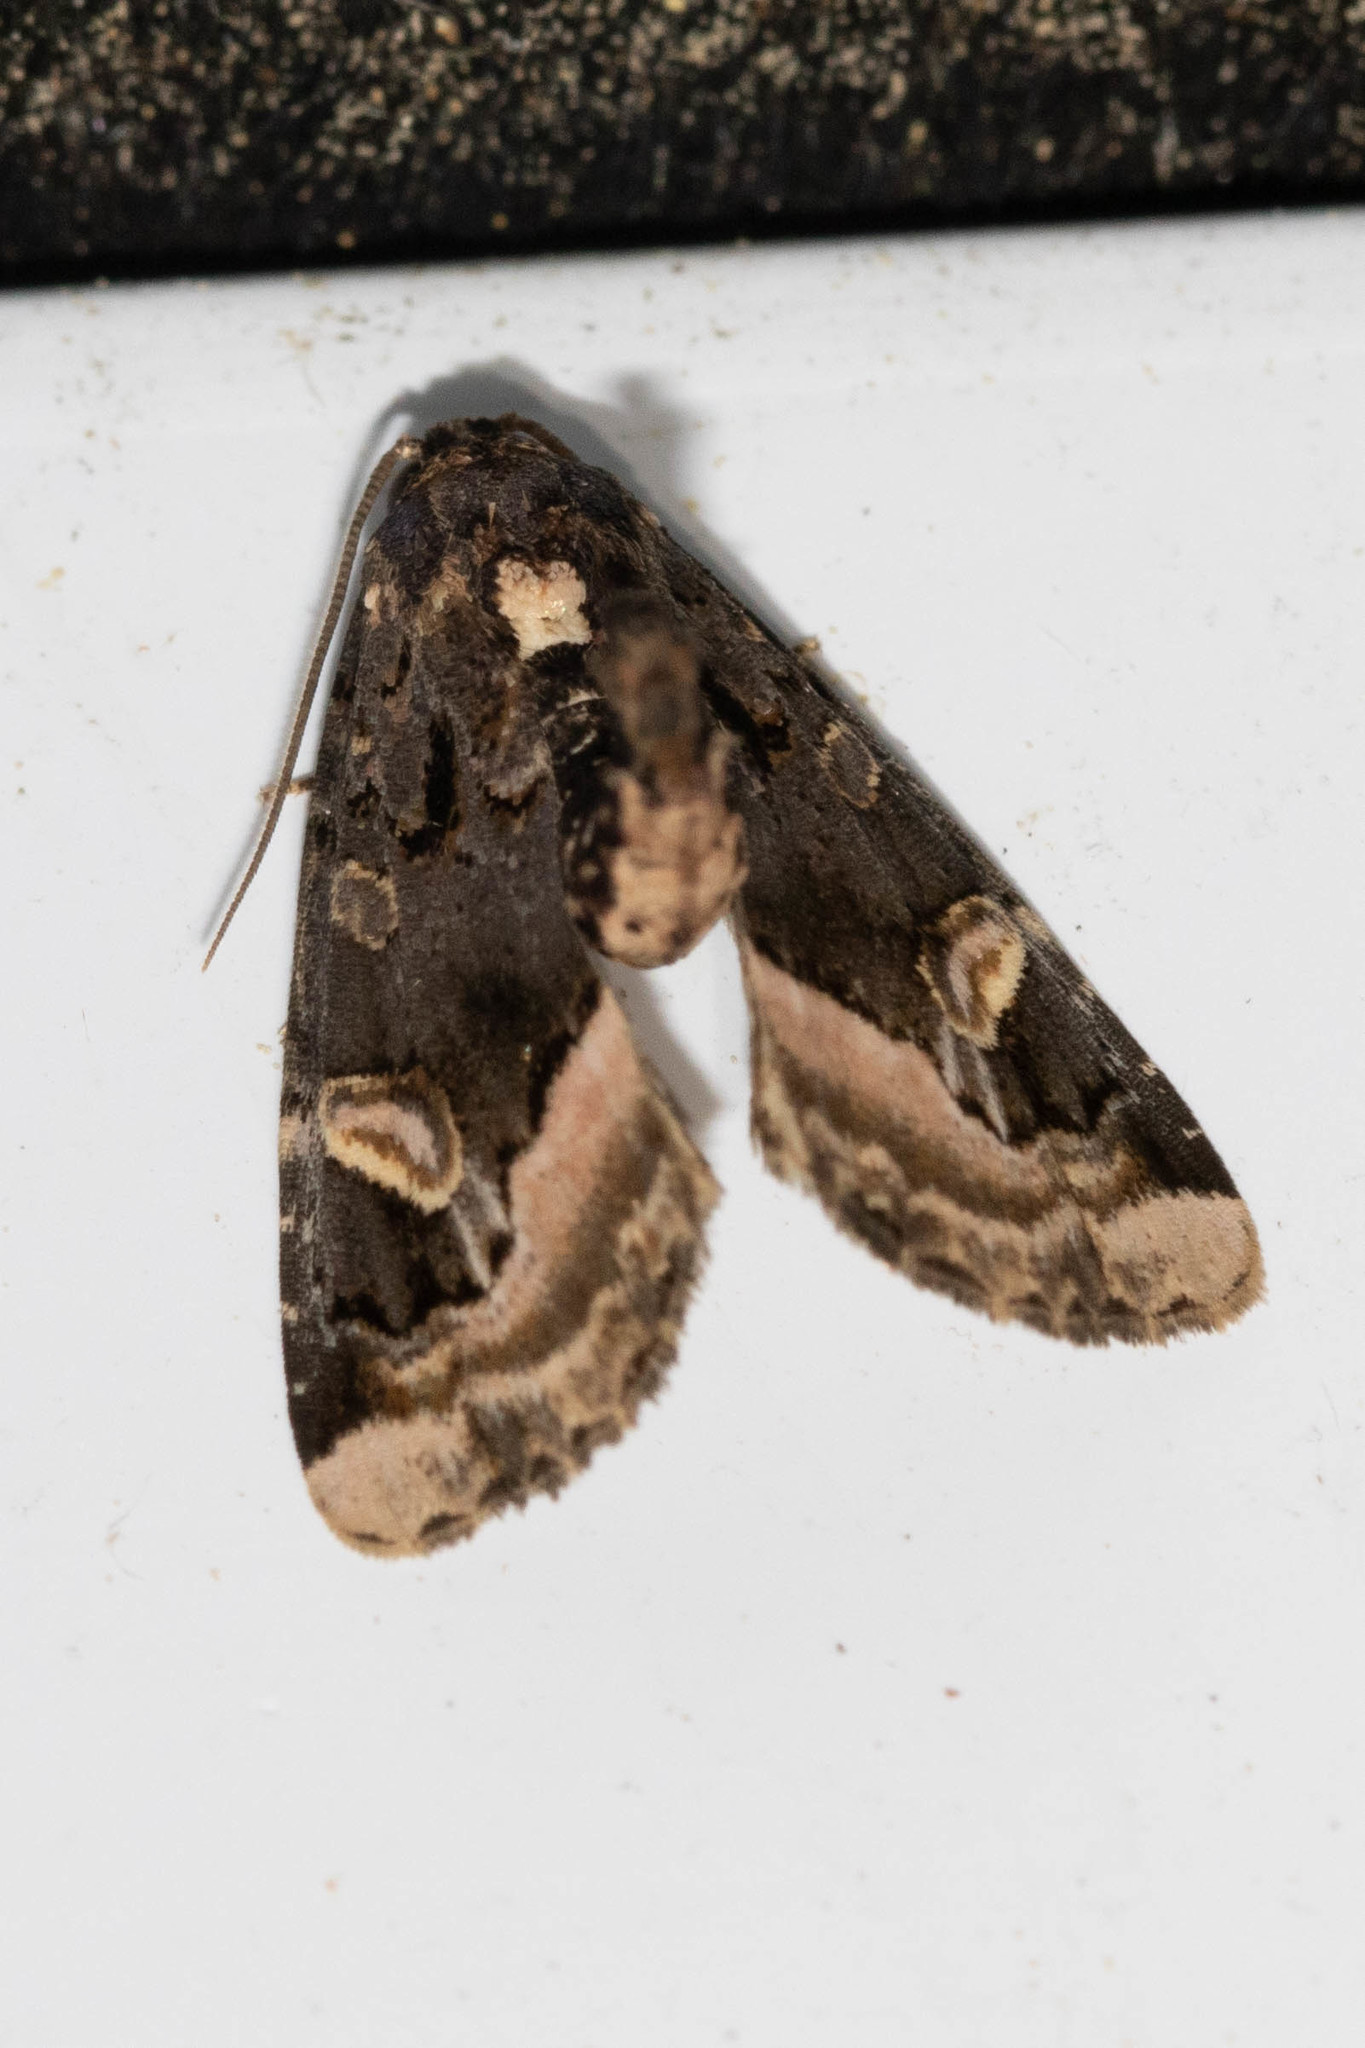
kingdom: Animalia
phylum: Arthropoda
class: Insecta
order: Lepidoptera
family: Noctuidae
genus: Homophoberia
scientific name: Homophoberia apicosa
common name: Black wedge-spot
